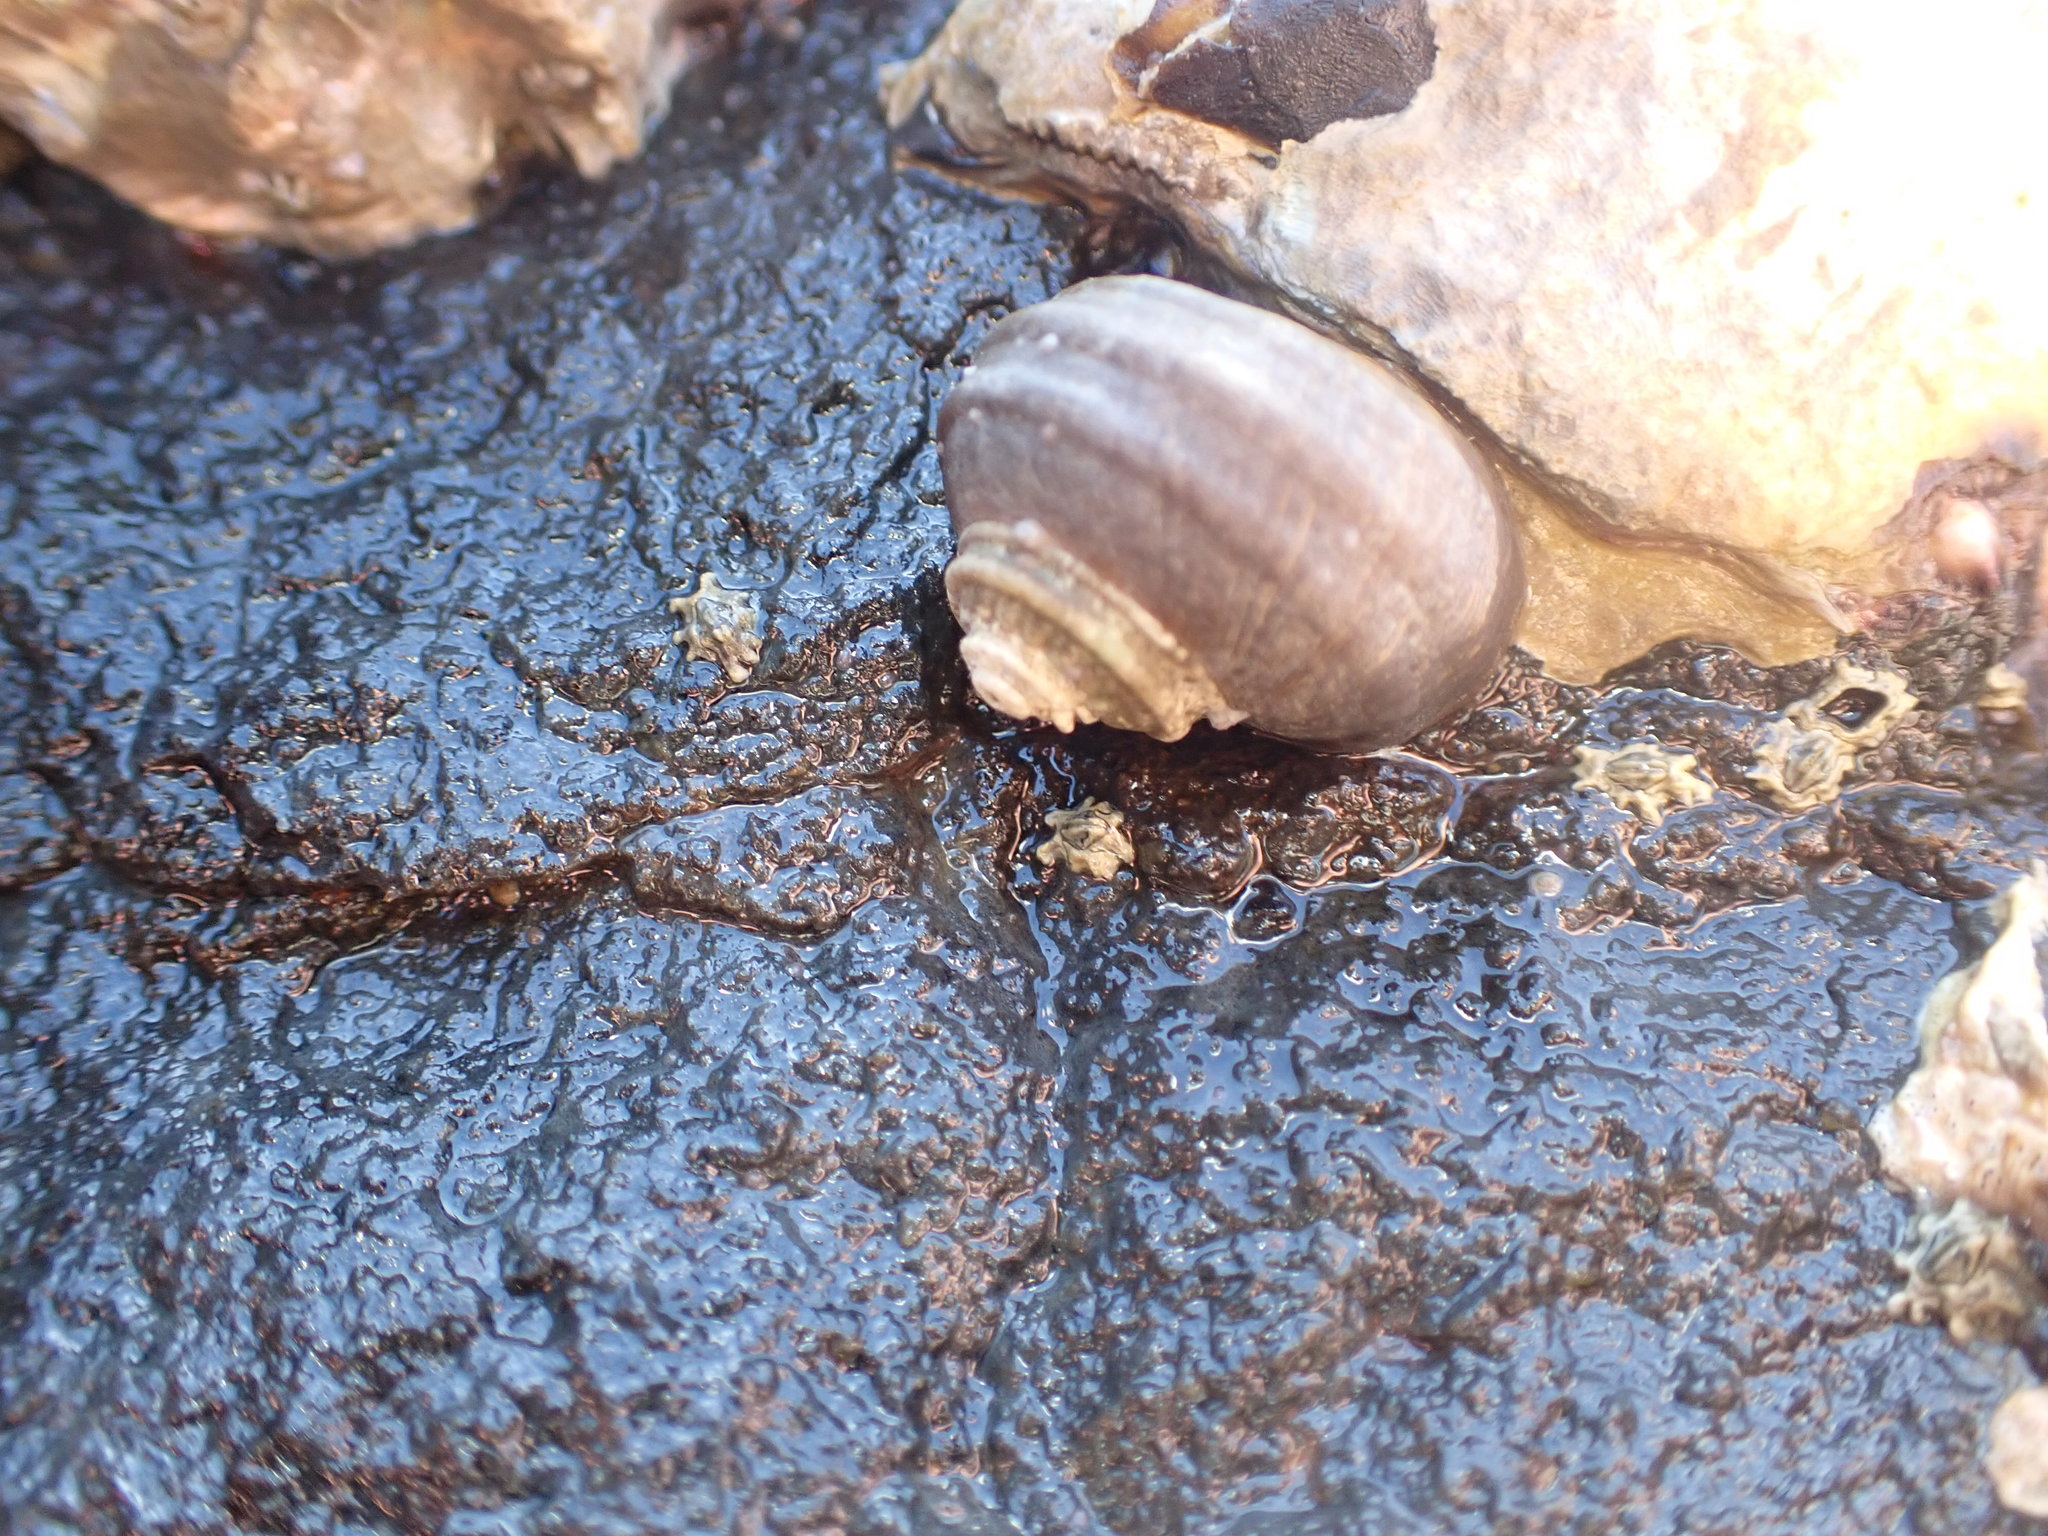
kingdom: Animalia
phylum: Mollusca
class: Gastropoda
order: Trochida
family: Turbinidae
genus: Lunella
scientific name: Lunella smaragda
